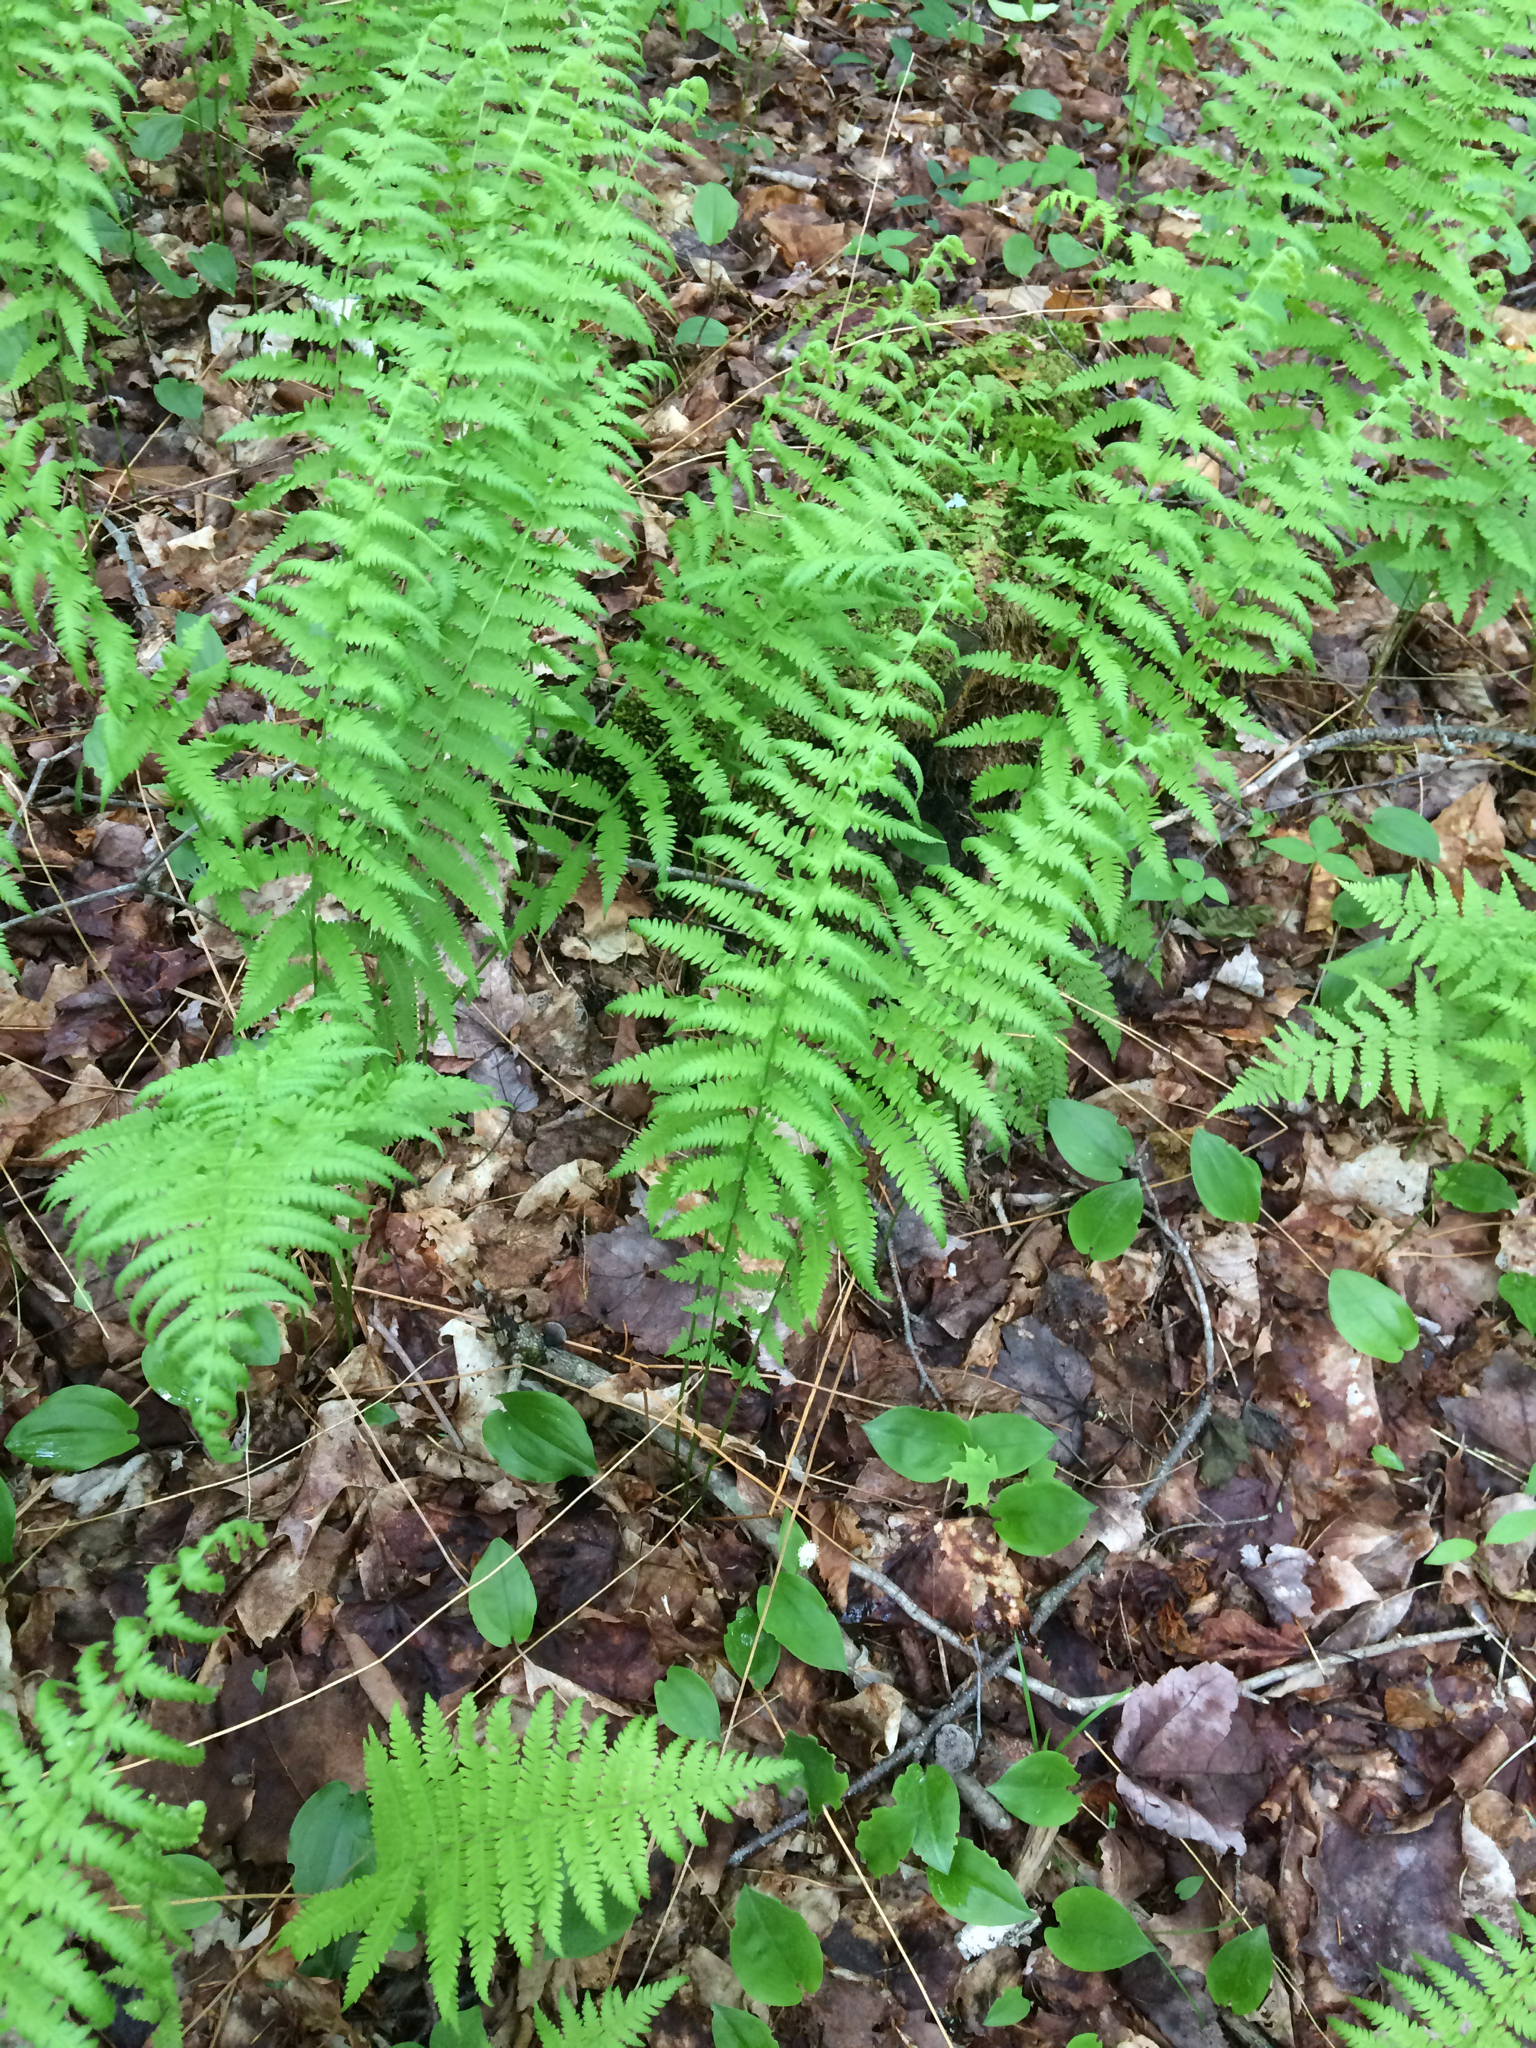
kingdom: Plantae
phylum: Tracheophyta
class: Polypodiopsida
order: Polypodiales
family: Thelypteridaceae
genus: Amauropelta
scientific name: Amauropelta noveboracensis
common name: New york fern
